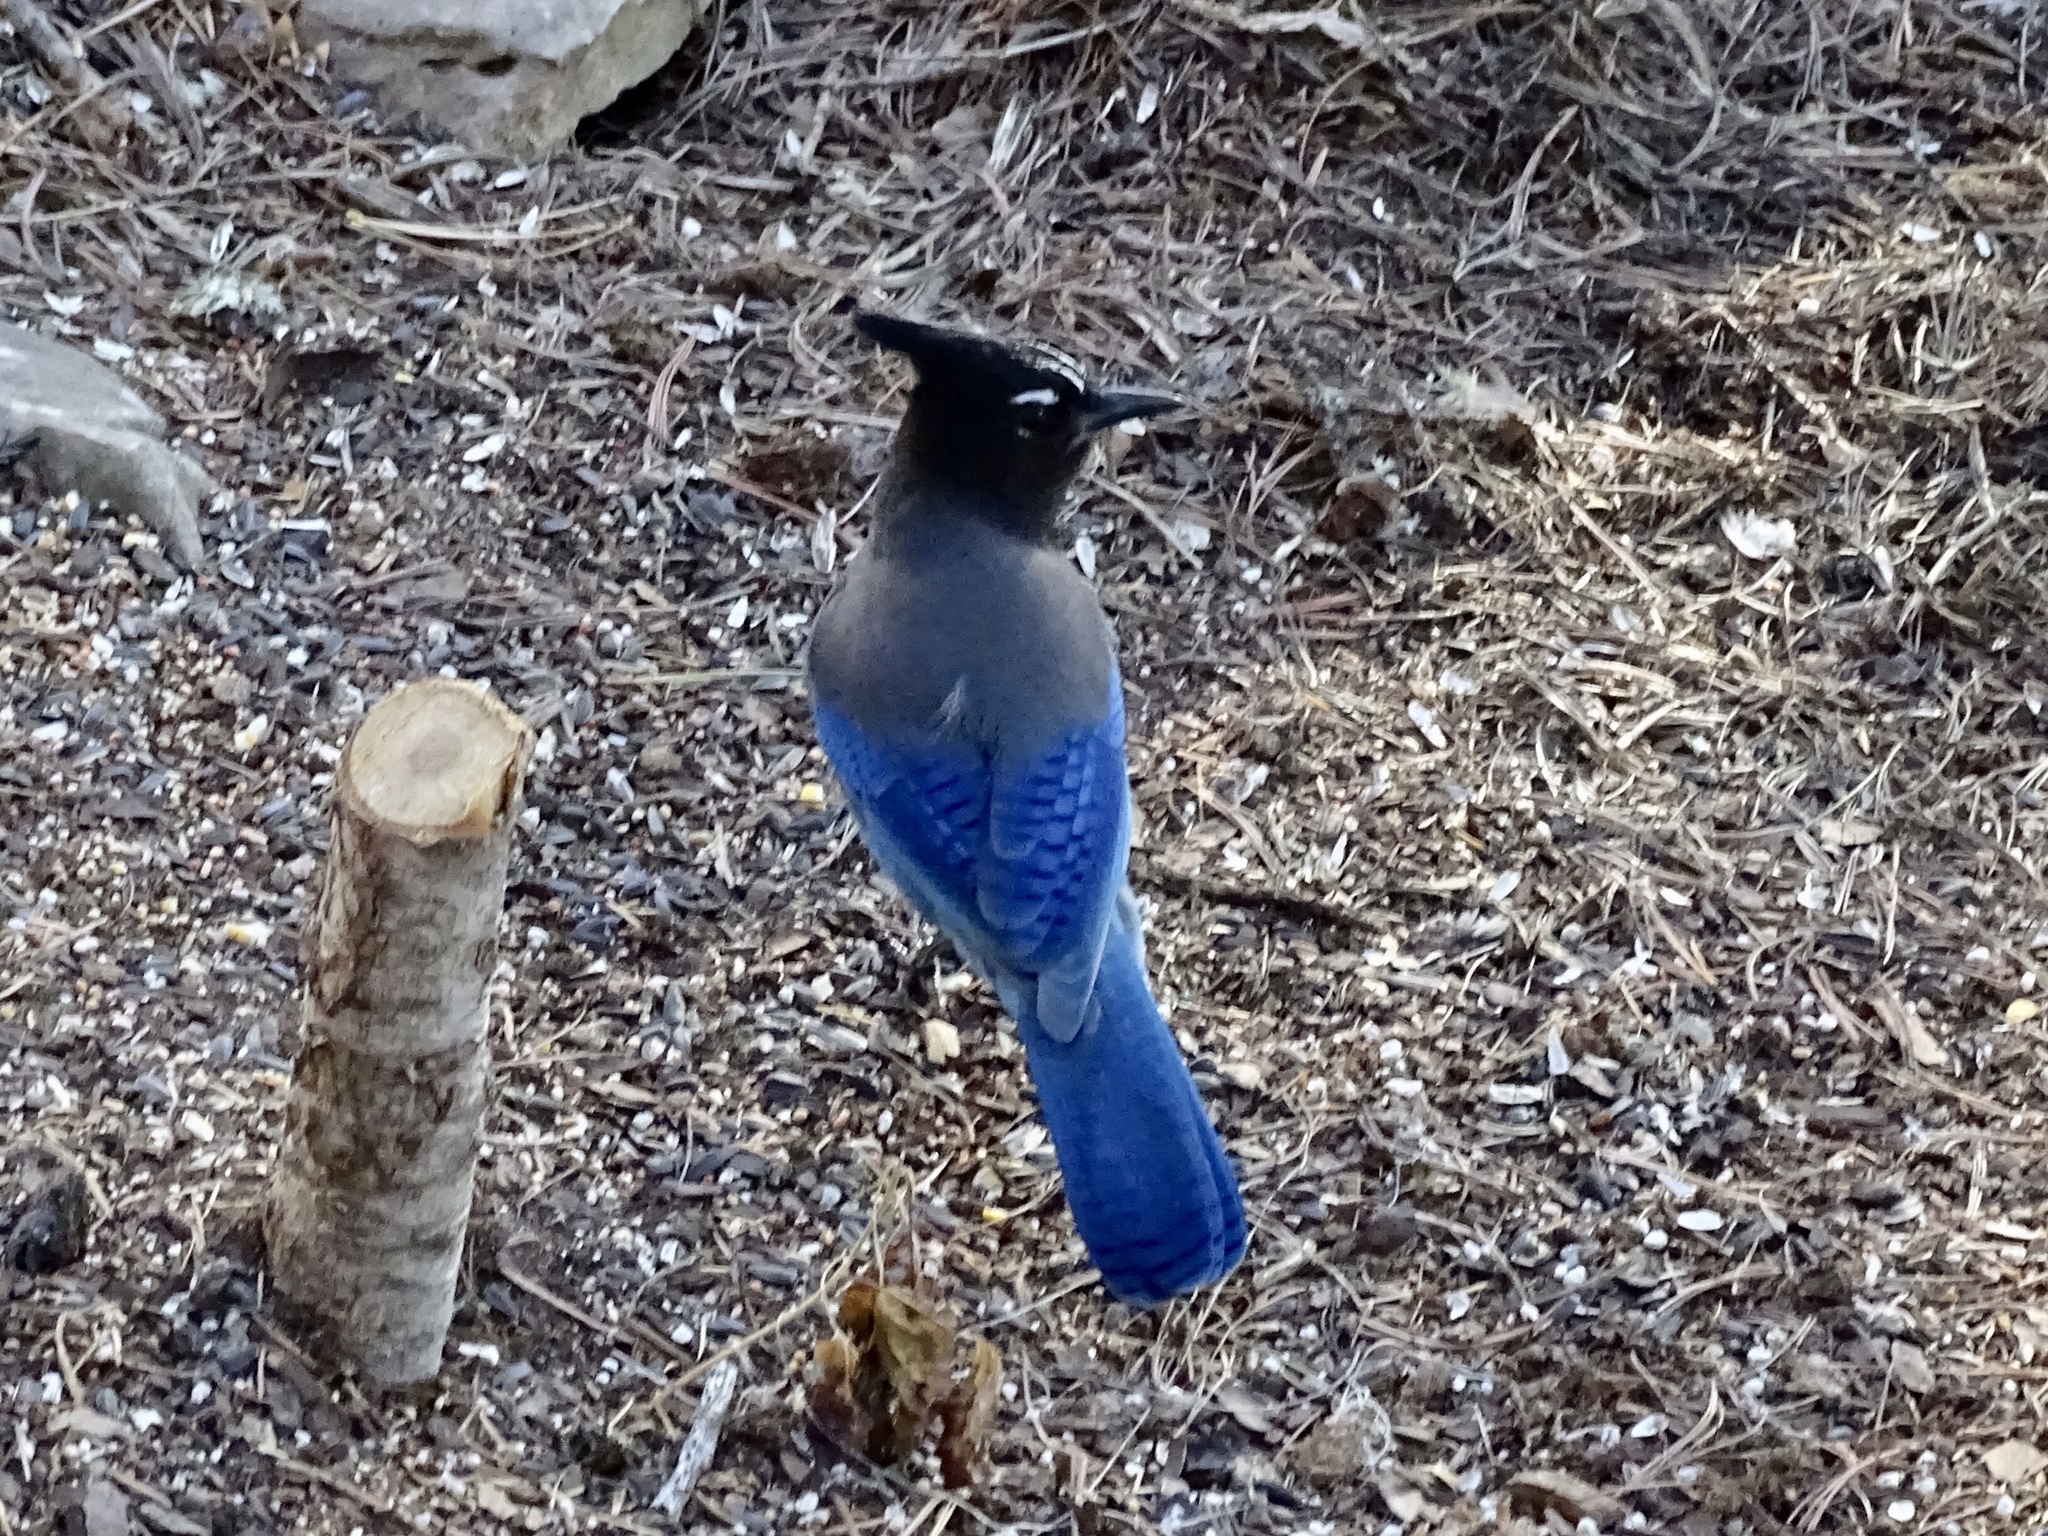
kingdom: Animalia
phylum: Chordata
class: Aves
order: Passeriformes
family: Corvidae
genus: Cyanocitta
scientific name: Cyanocitta stelleri
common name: Steller's jay
